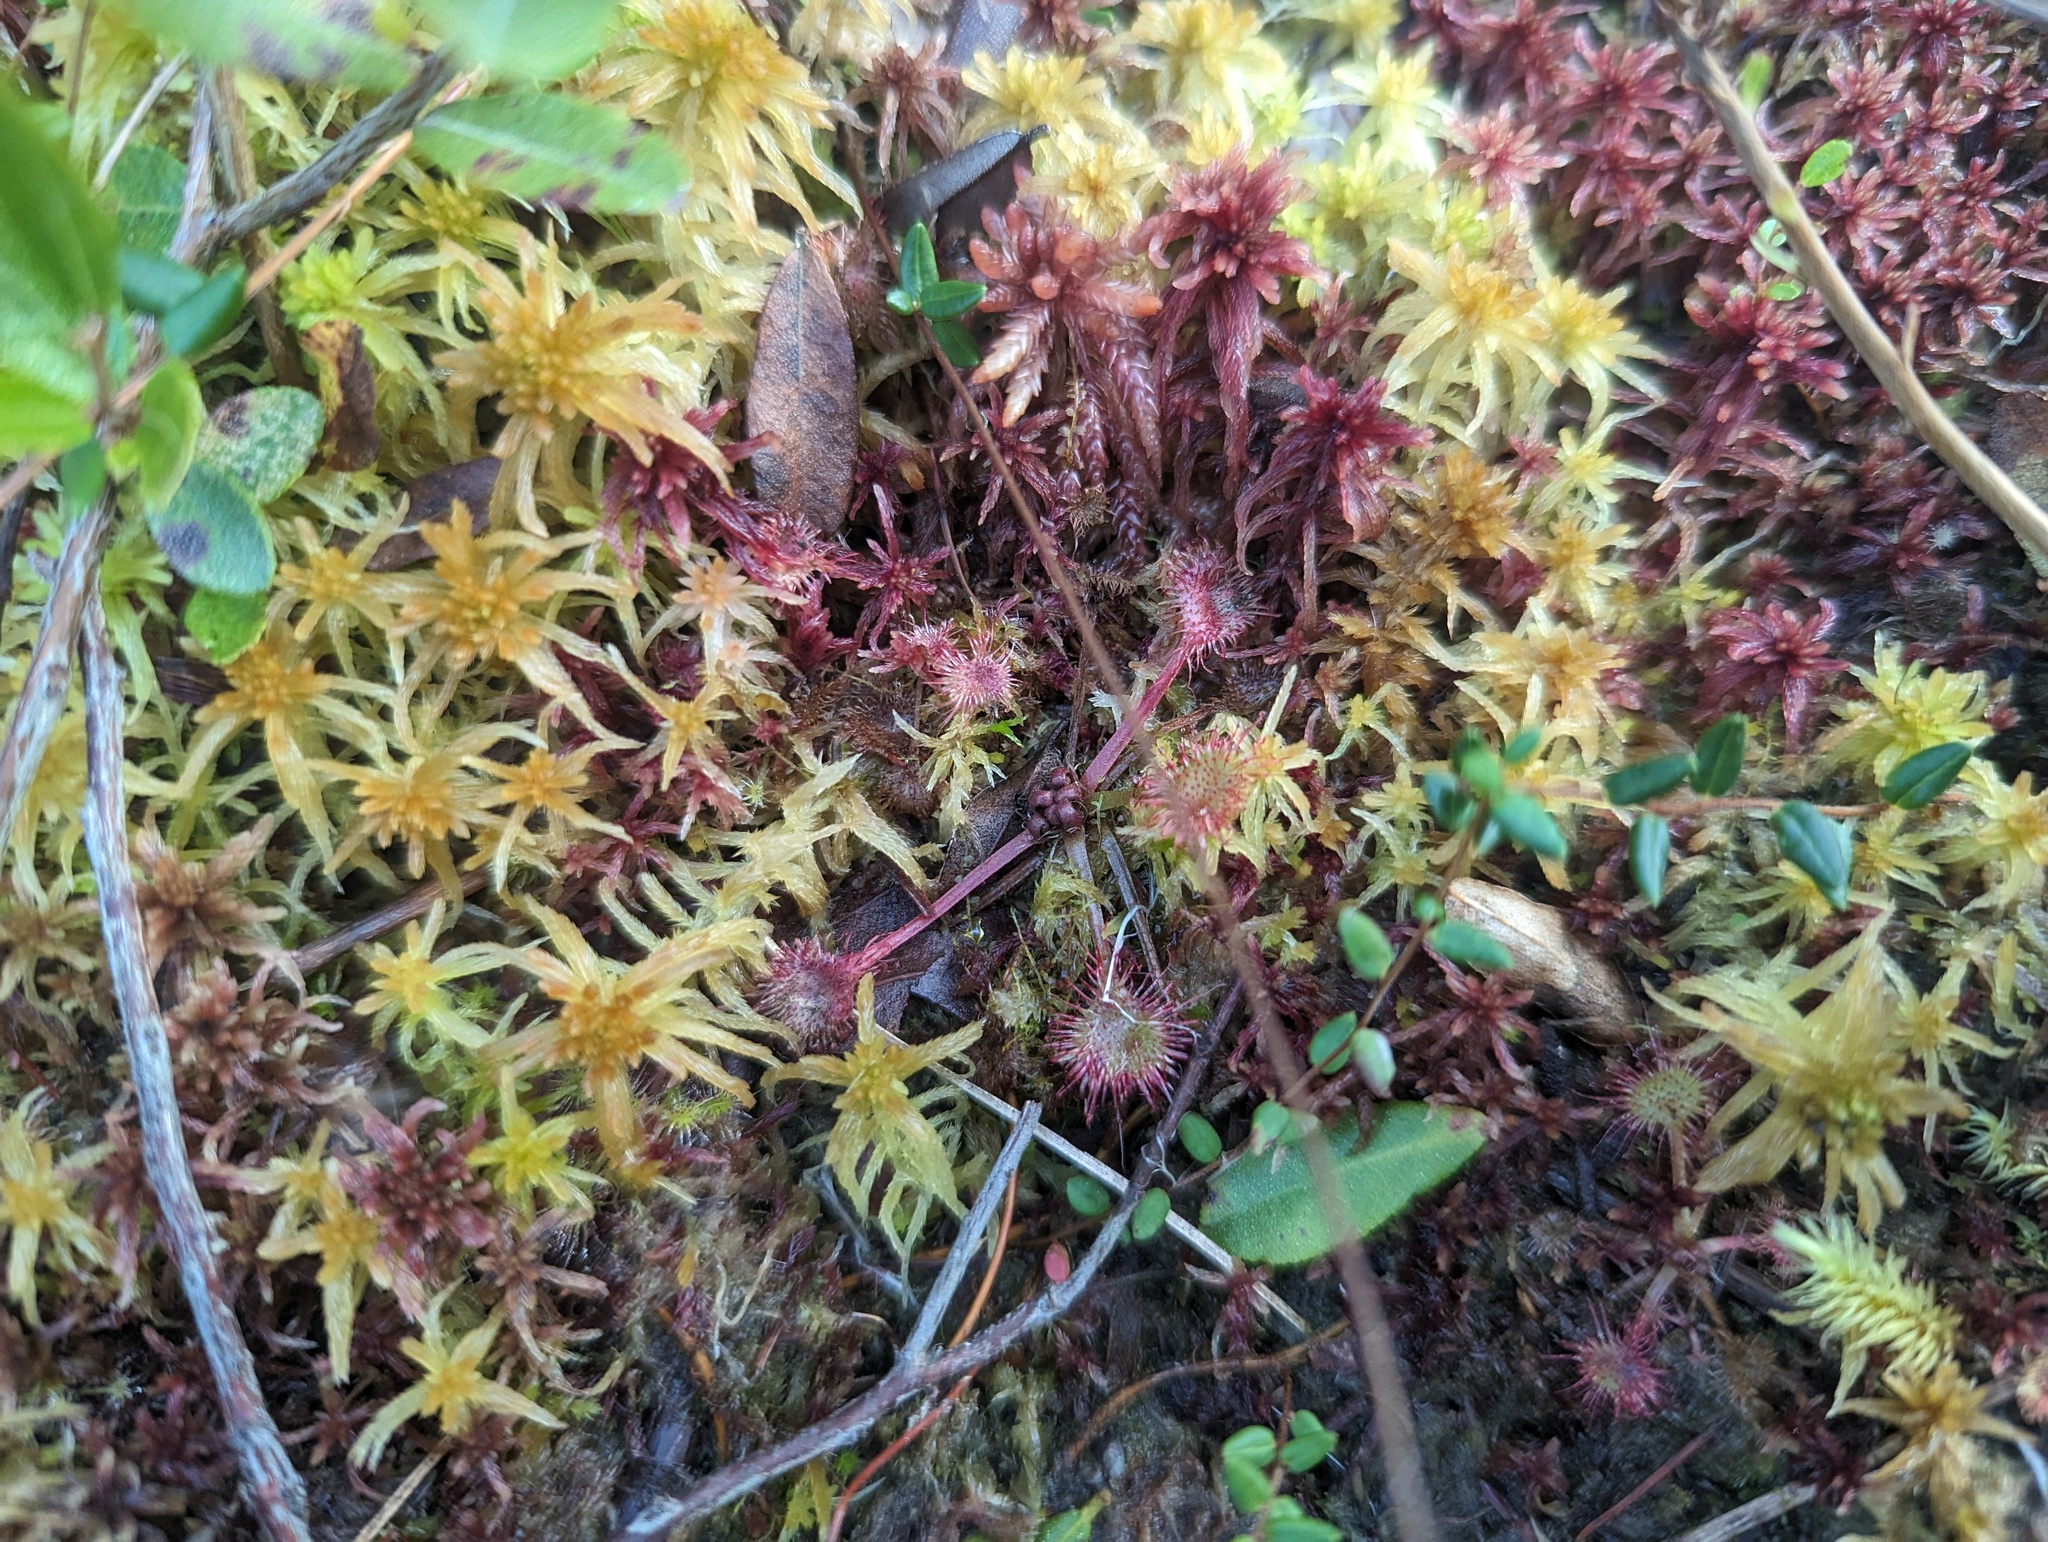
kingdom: Plantae
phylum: Tracheophyta
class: Magnoliopsida
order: Caryophyllales
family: Droseraceae
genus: Drosera
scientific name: Drosera rotundifolia
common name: Round-leaved sundew
